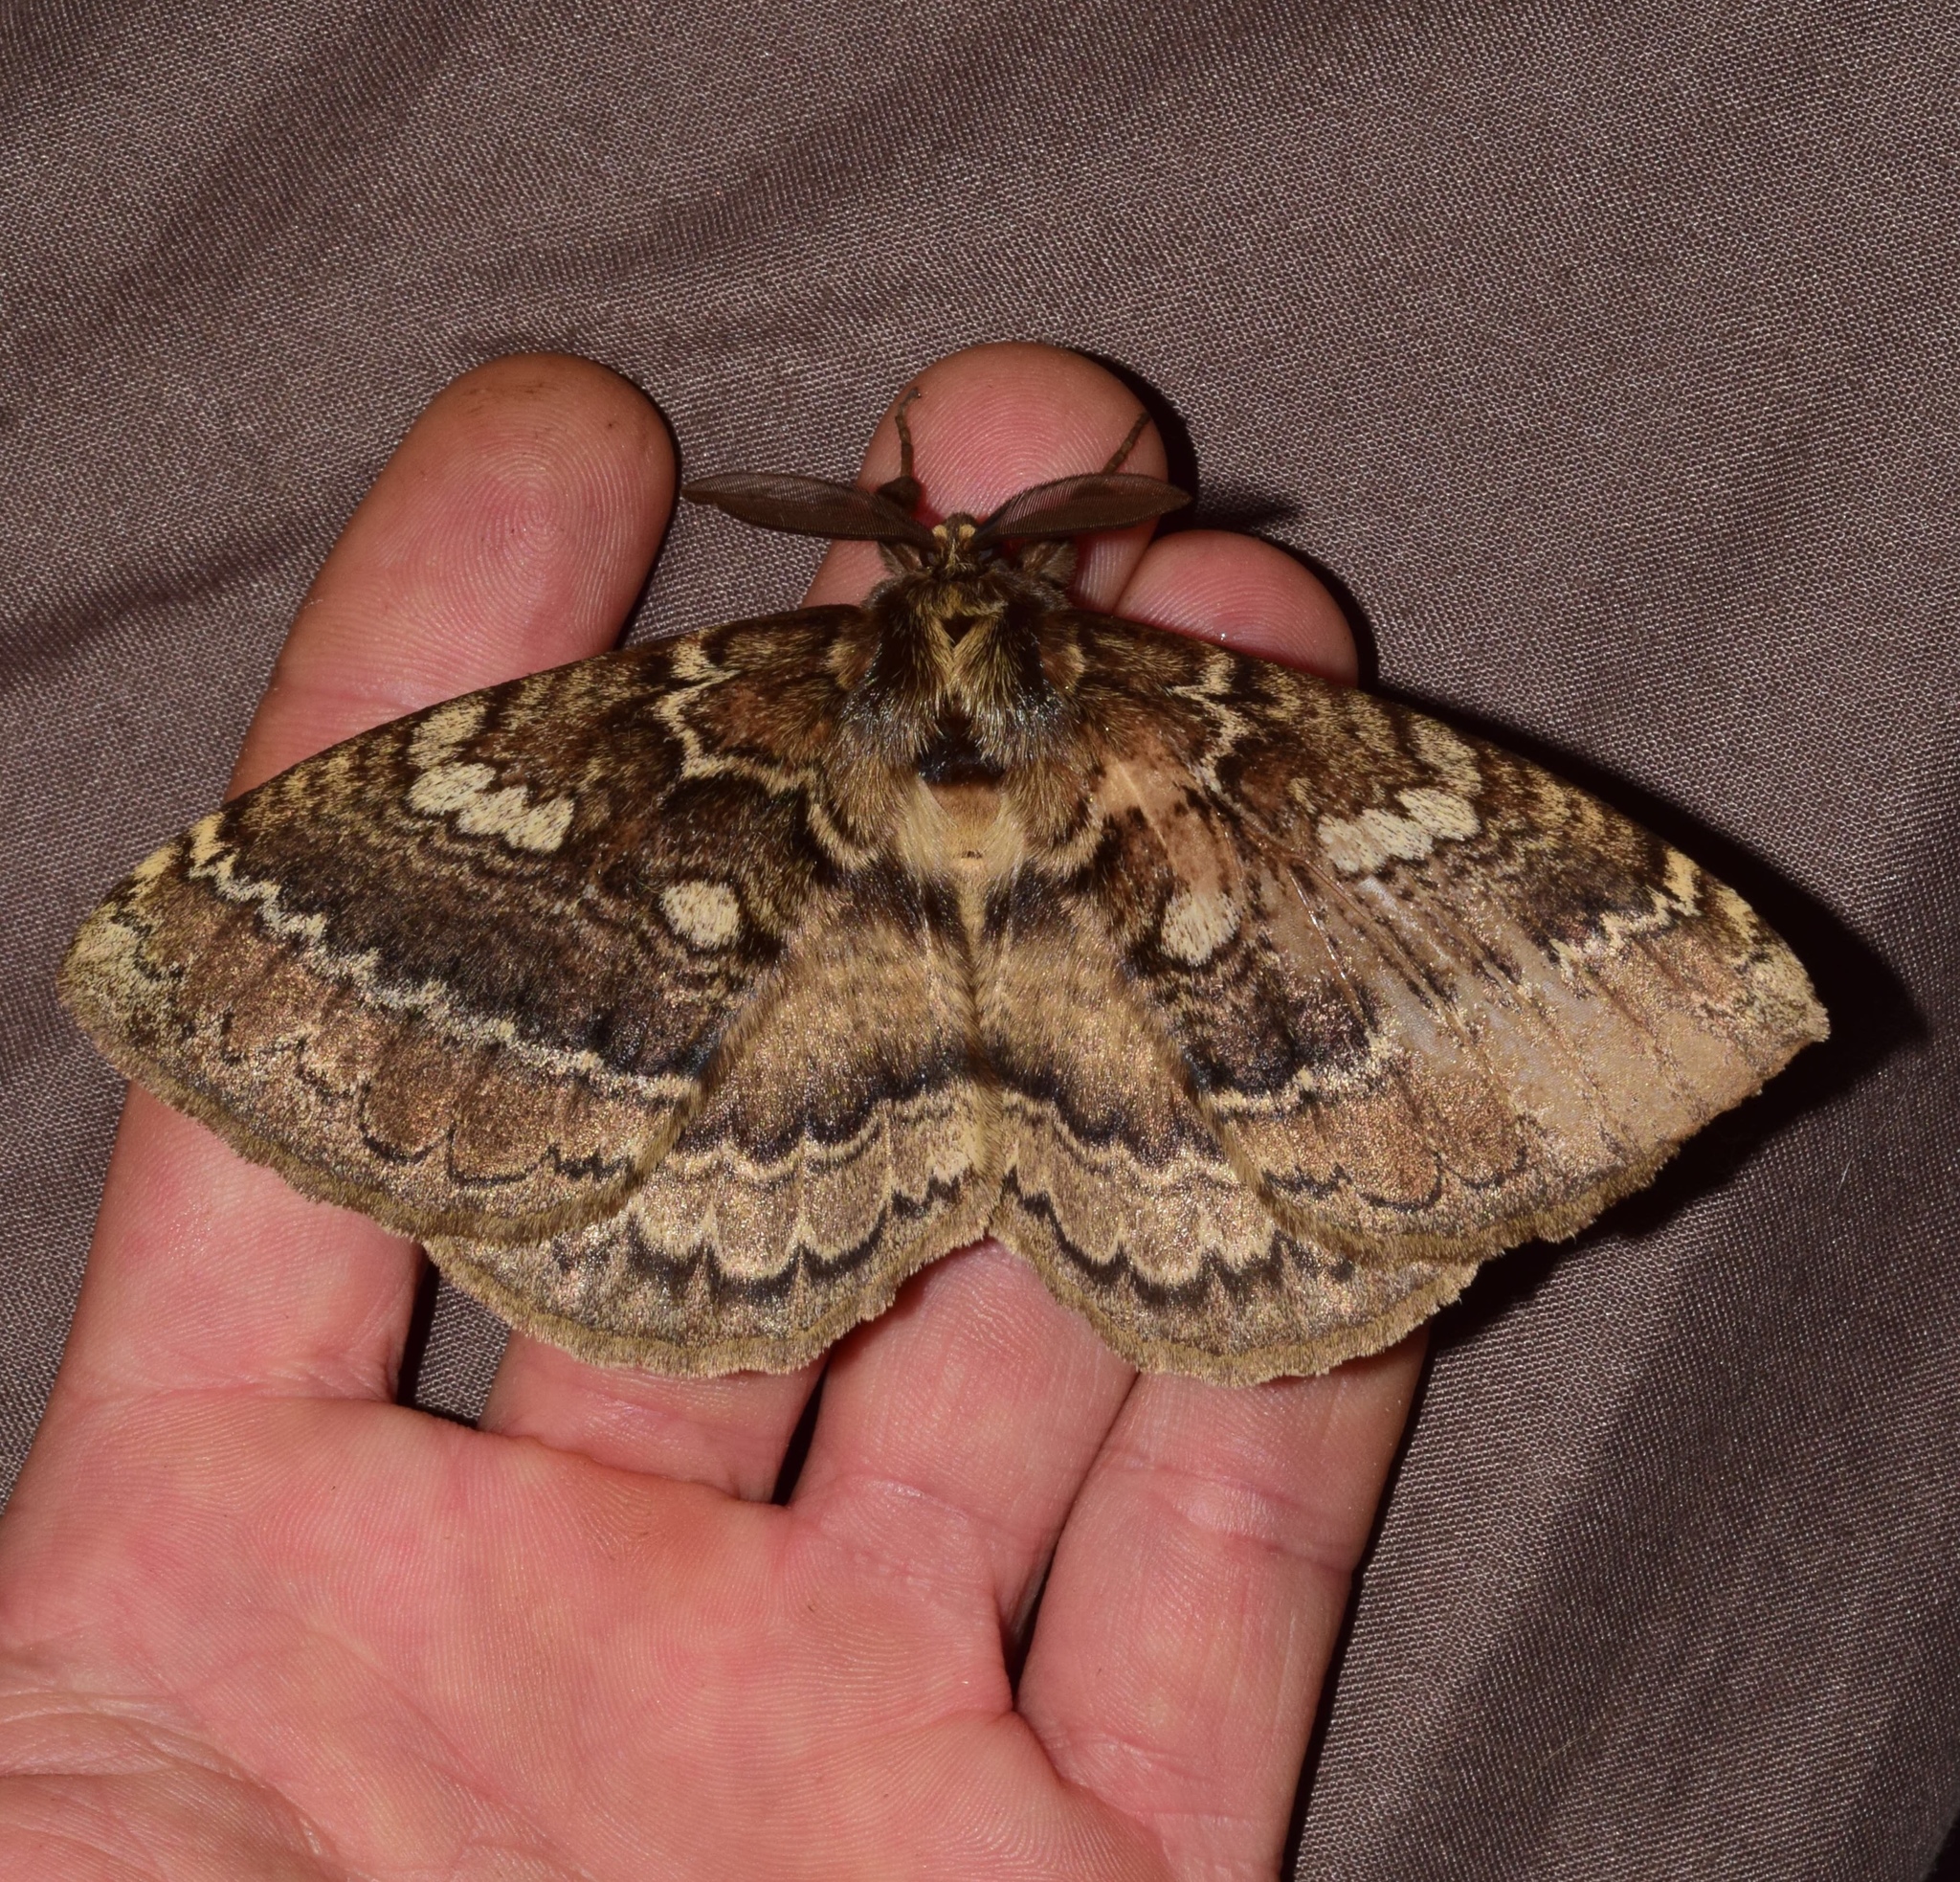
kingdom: Animalia
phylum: Arthropoda
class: Insecta
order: Lepidoptera
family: Eupterotidae
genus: Striphnopteryx
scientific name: Striphnopteryx edulis
